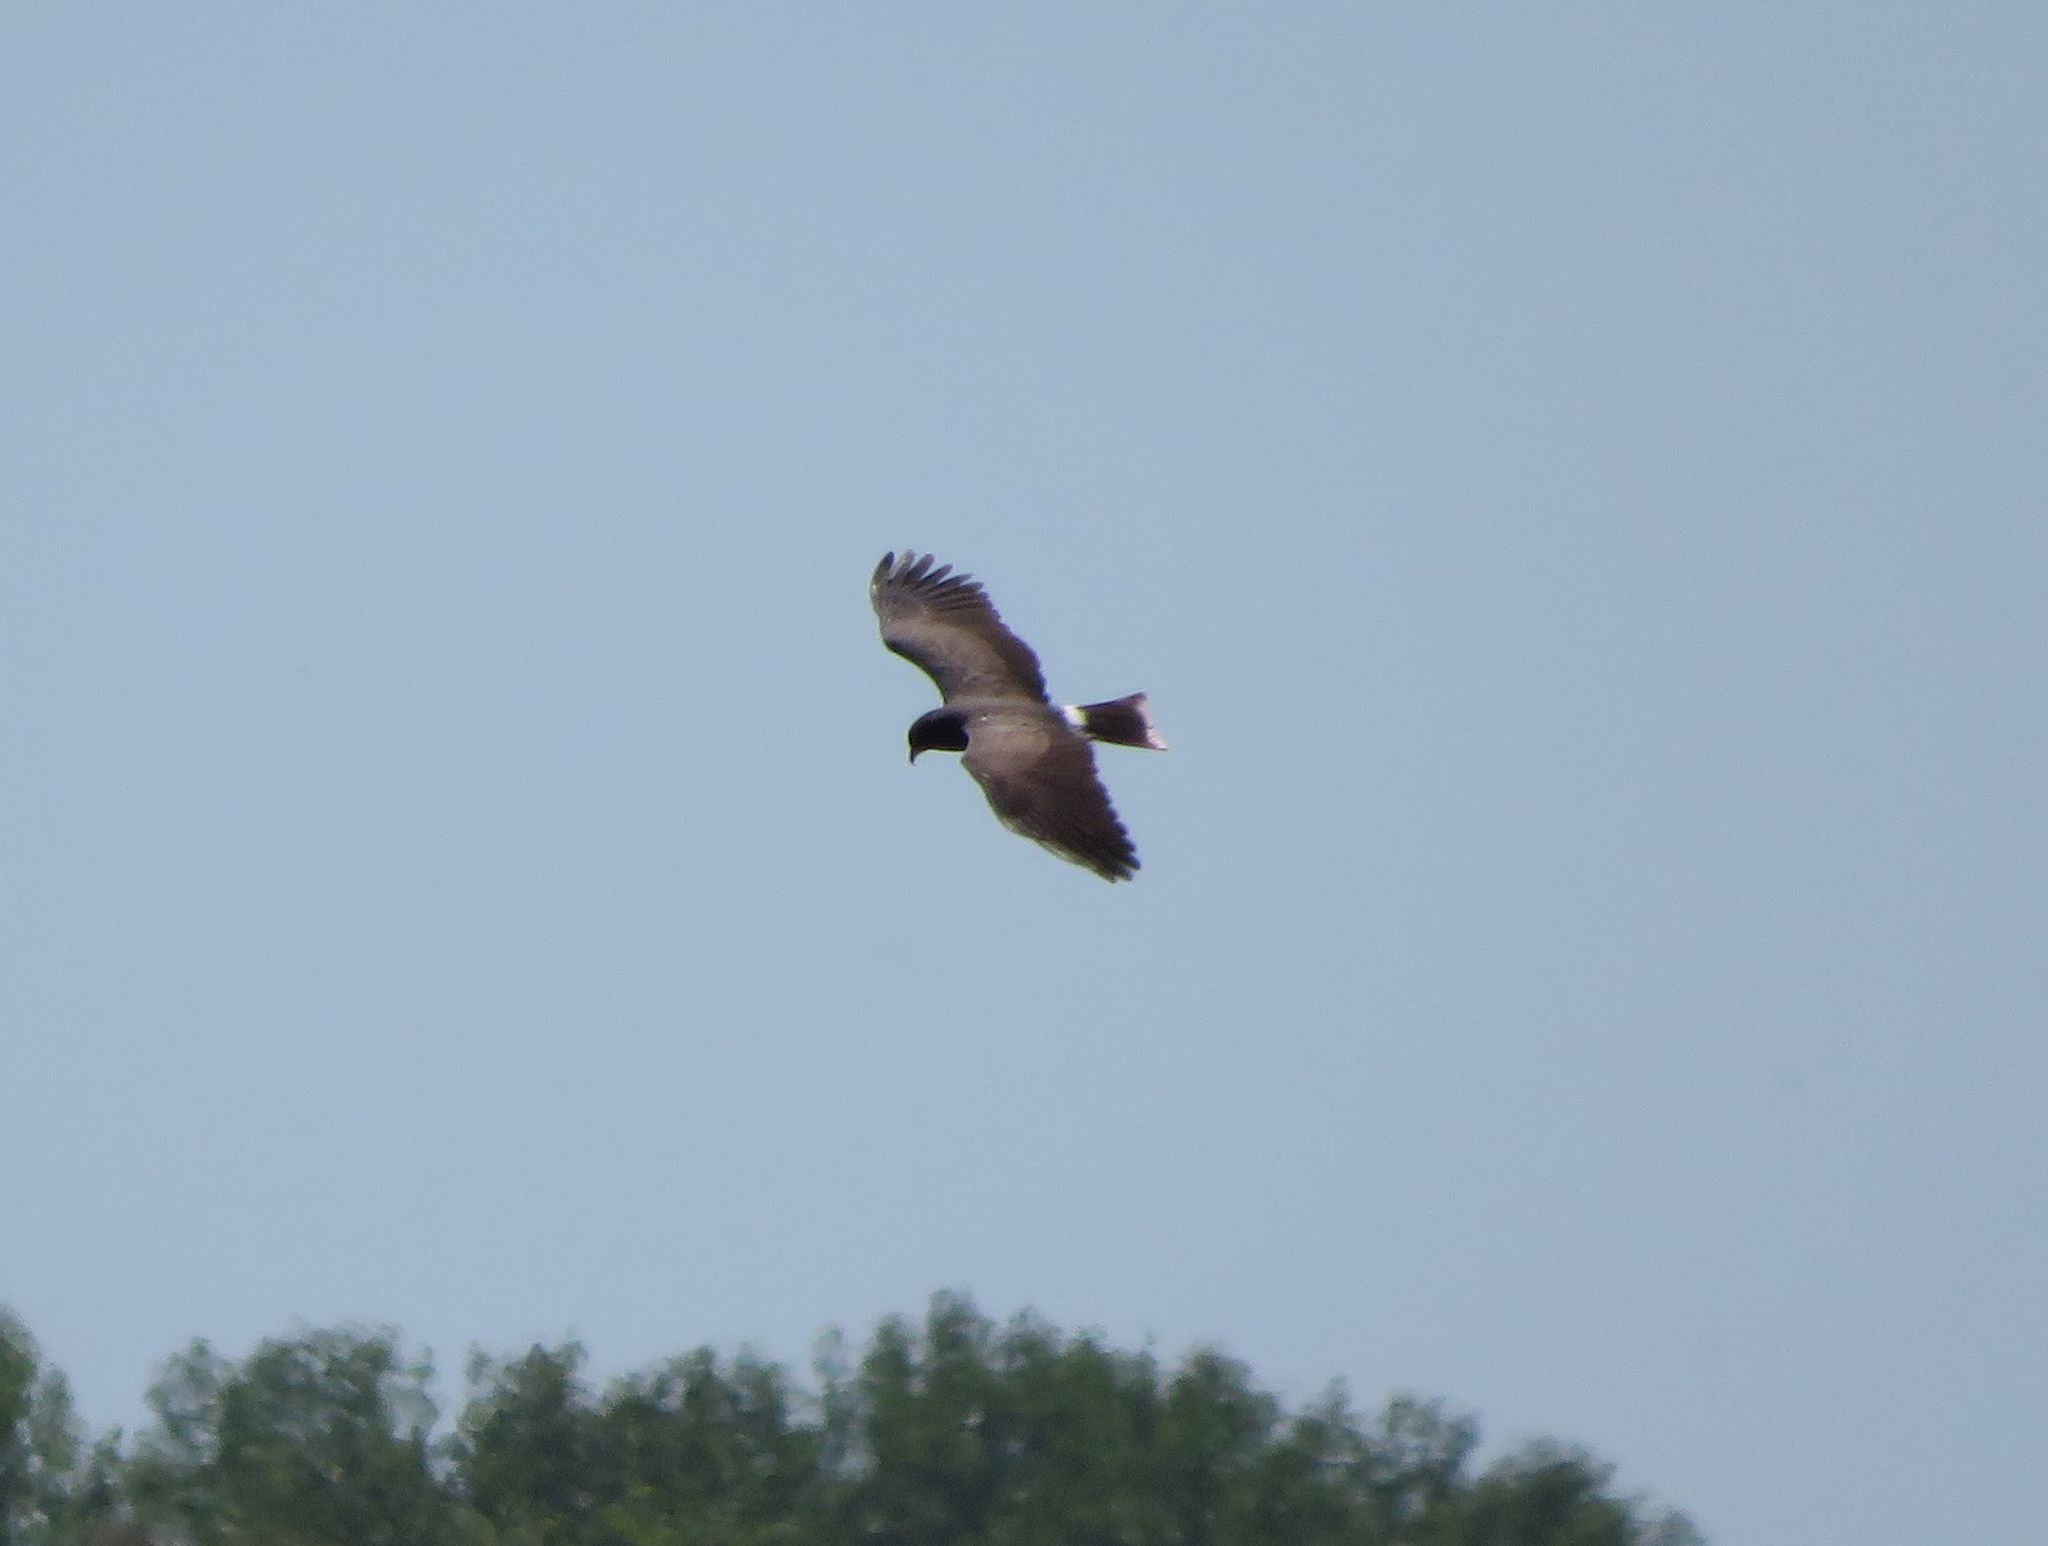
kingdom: Animalia
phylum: Chordata
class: Aves
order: Accipitriformes
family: Accipitridae
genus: Rostrhamus
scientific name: Rostrhamus sociabilis
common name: Snail kite
